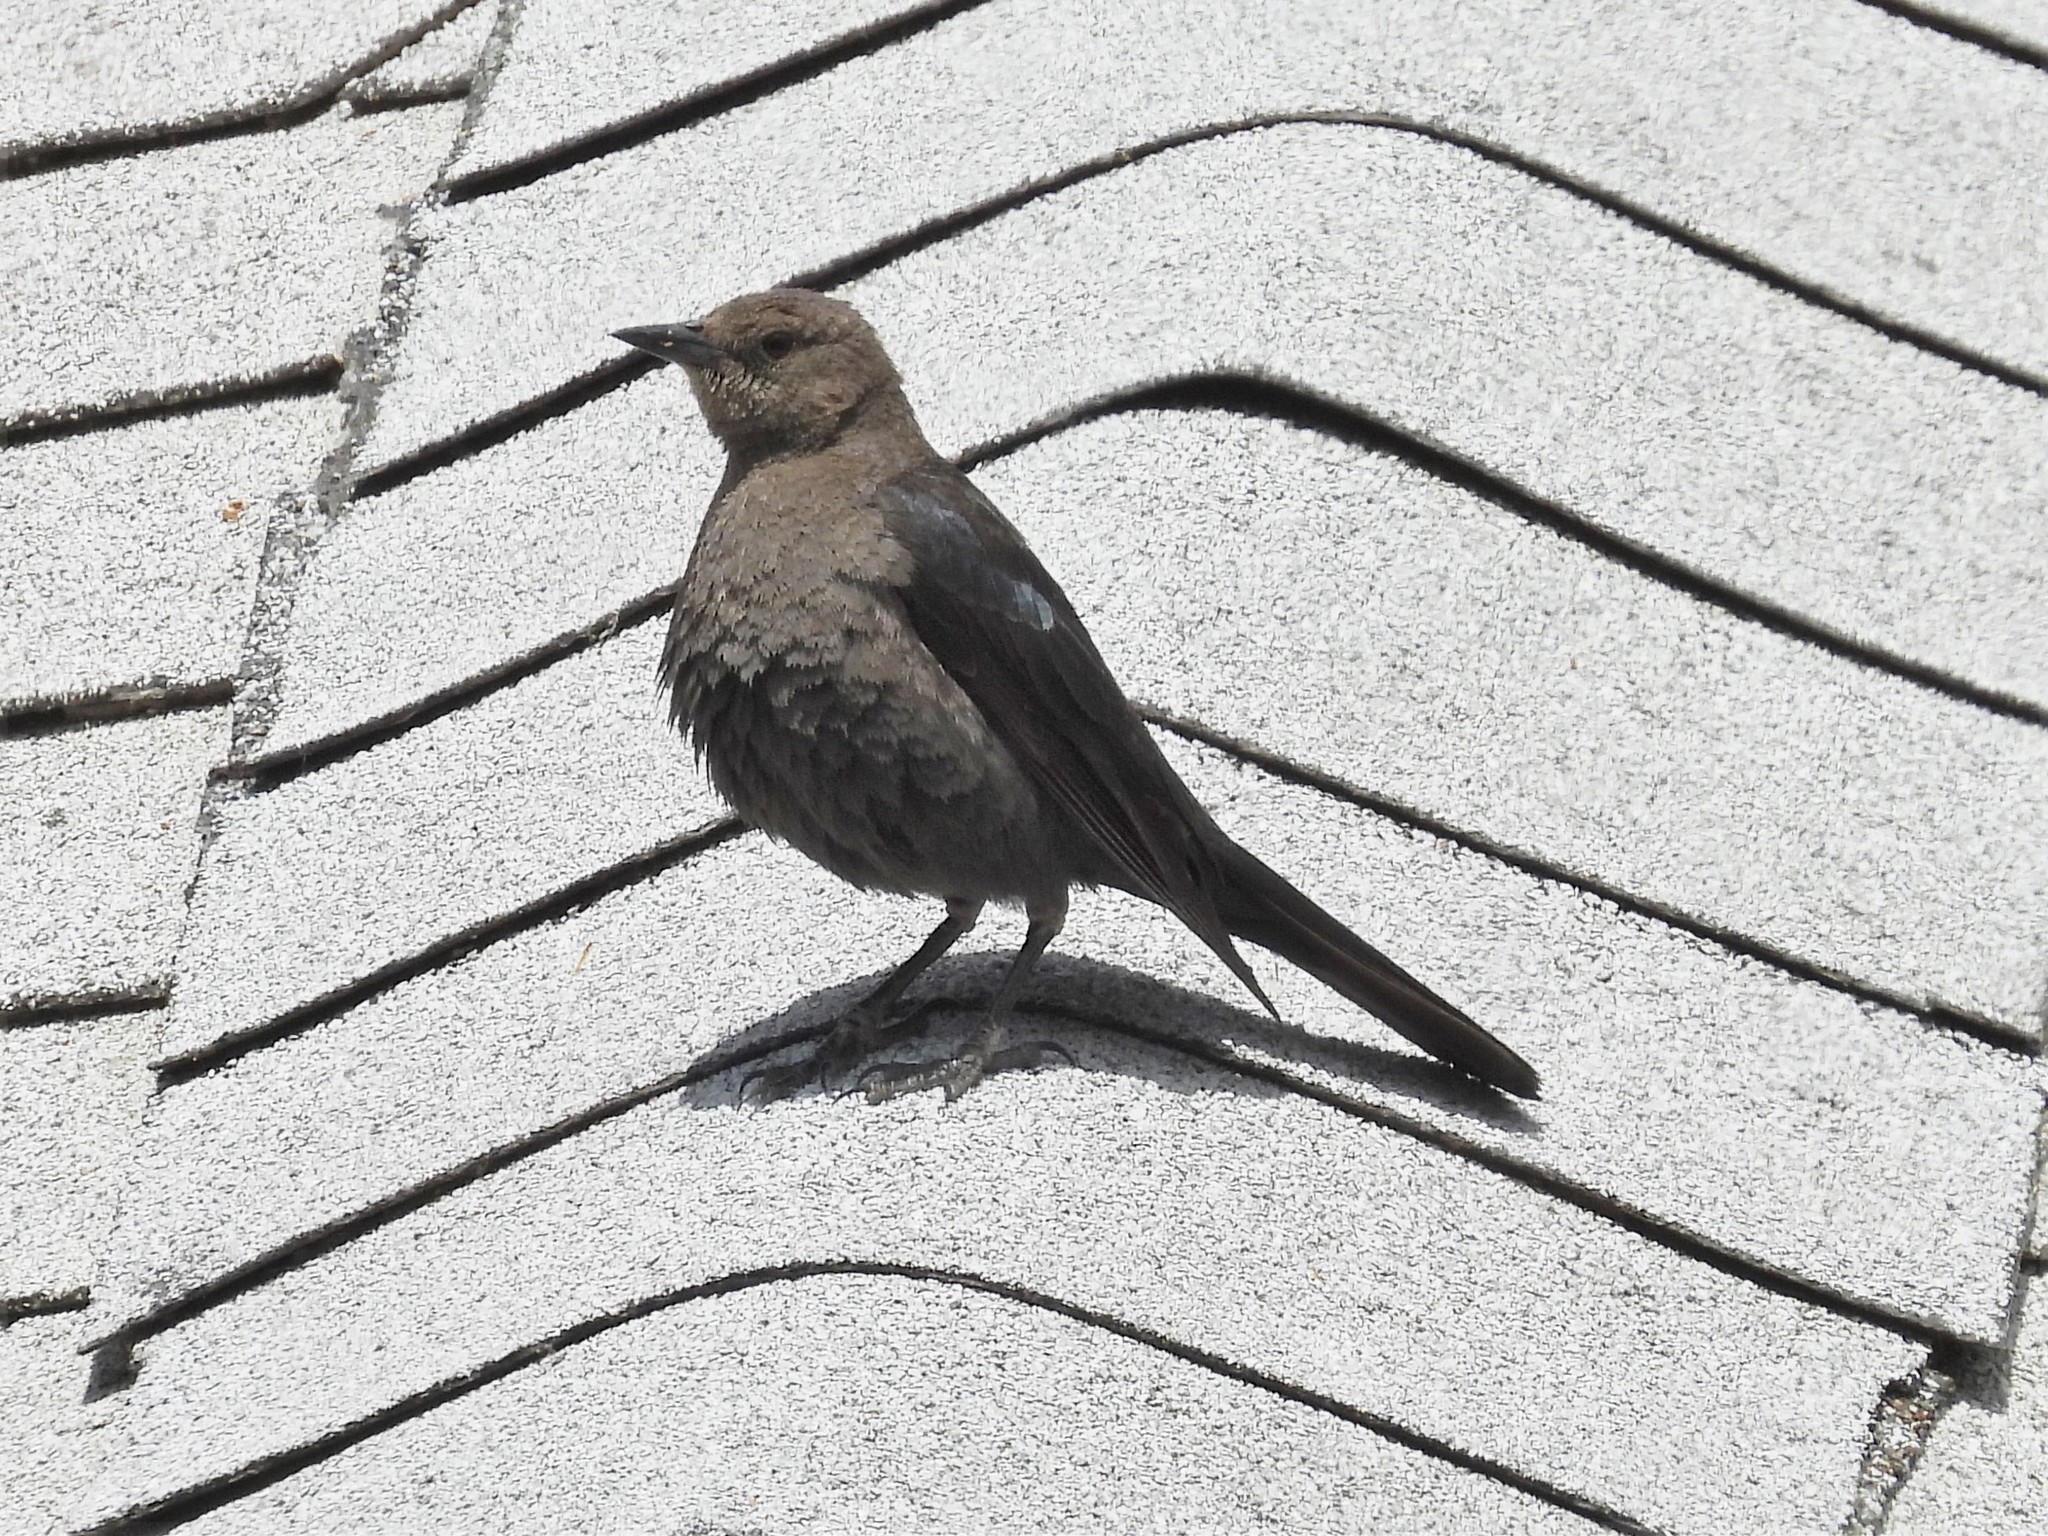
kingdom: Animalia
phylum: Chordata
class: Aves
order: Passeriformes
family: Icteridae
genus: Euphagus
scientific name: Euphagus cyanocephalus
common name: Brewer's blackbird
